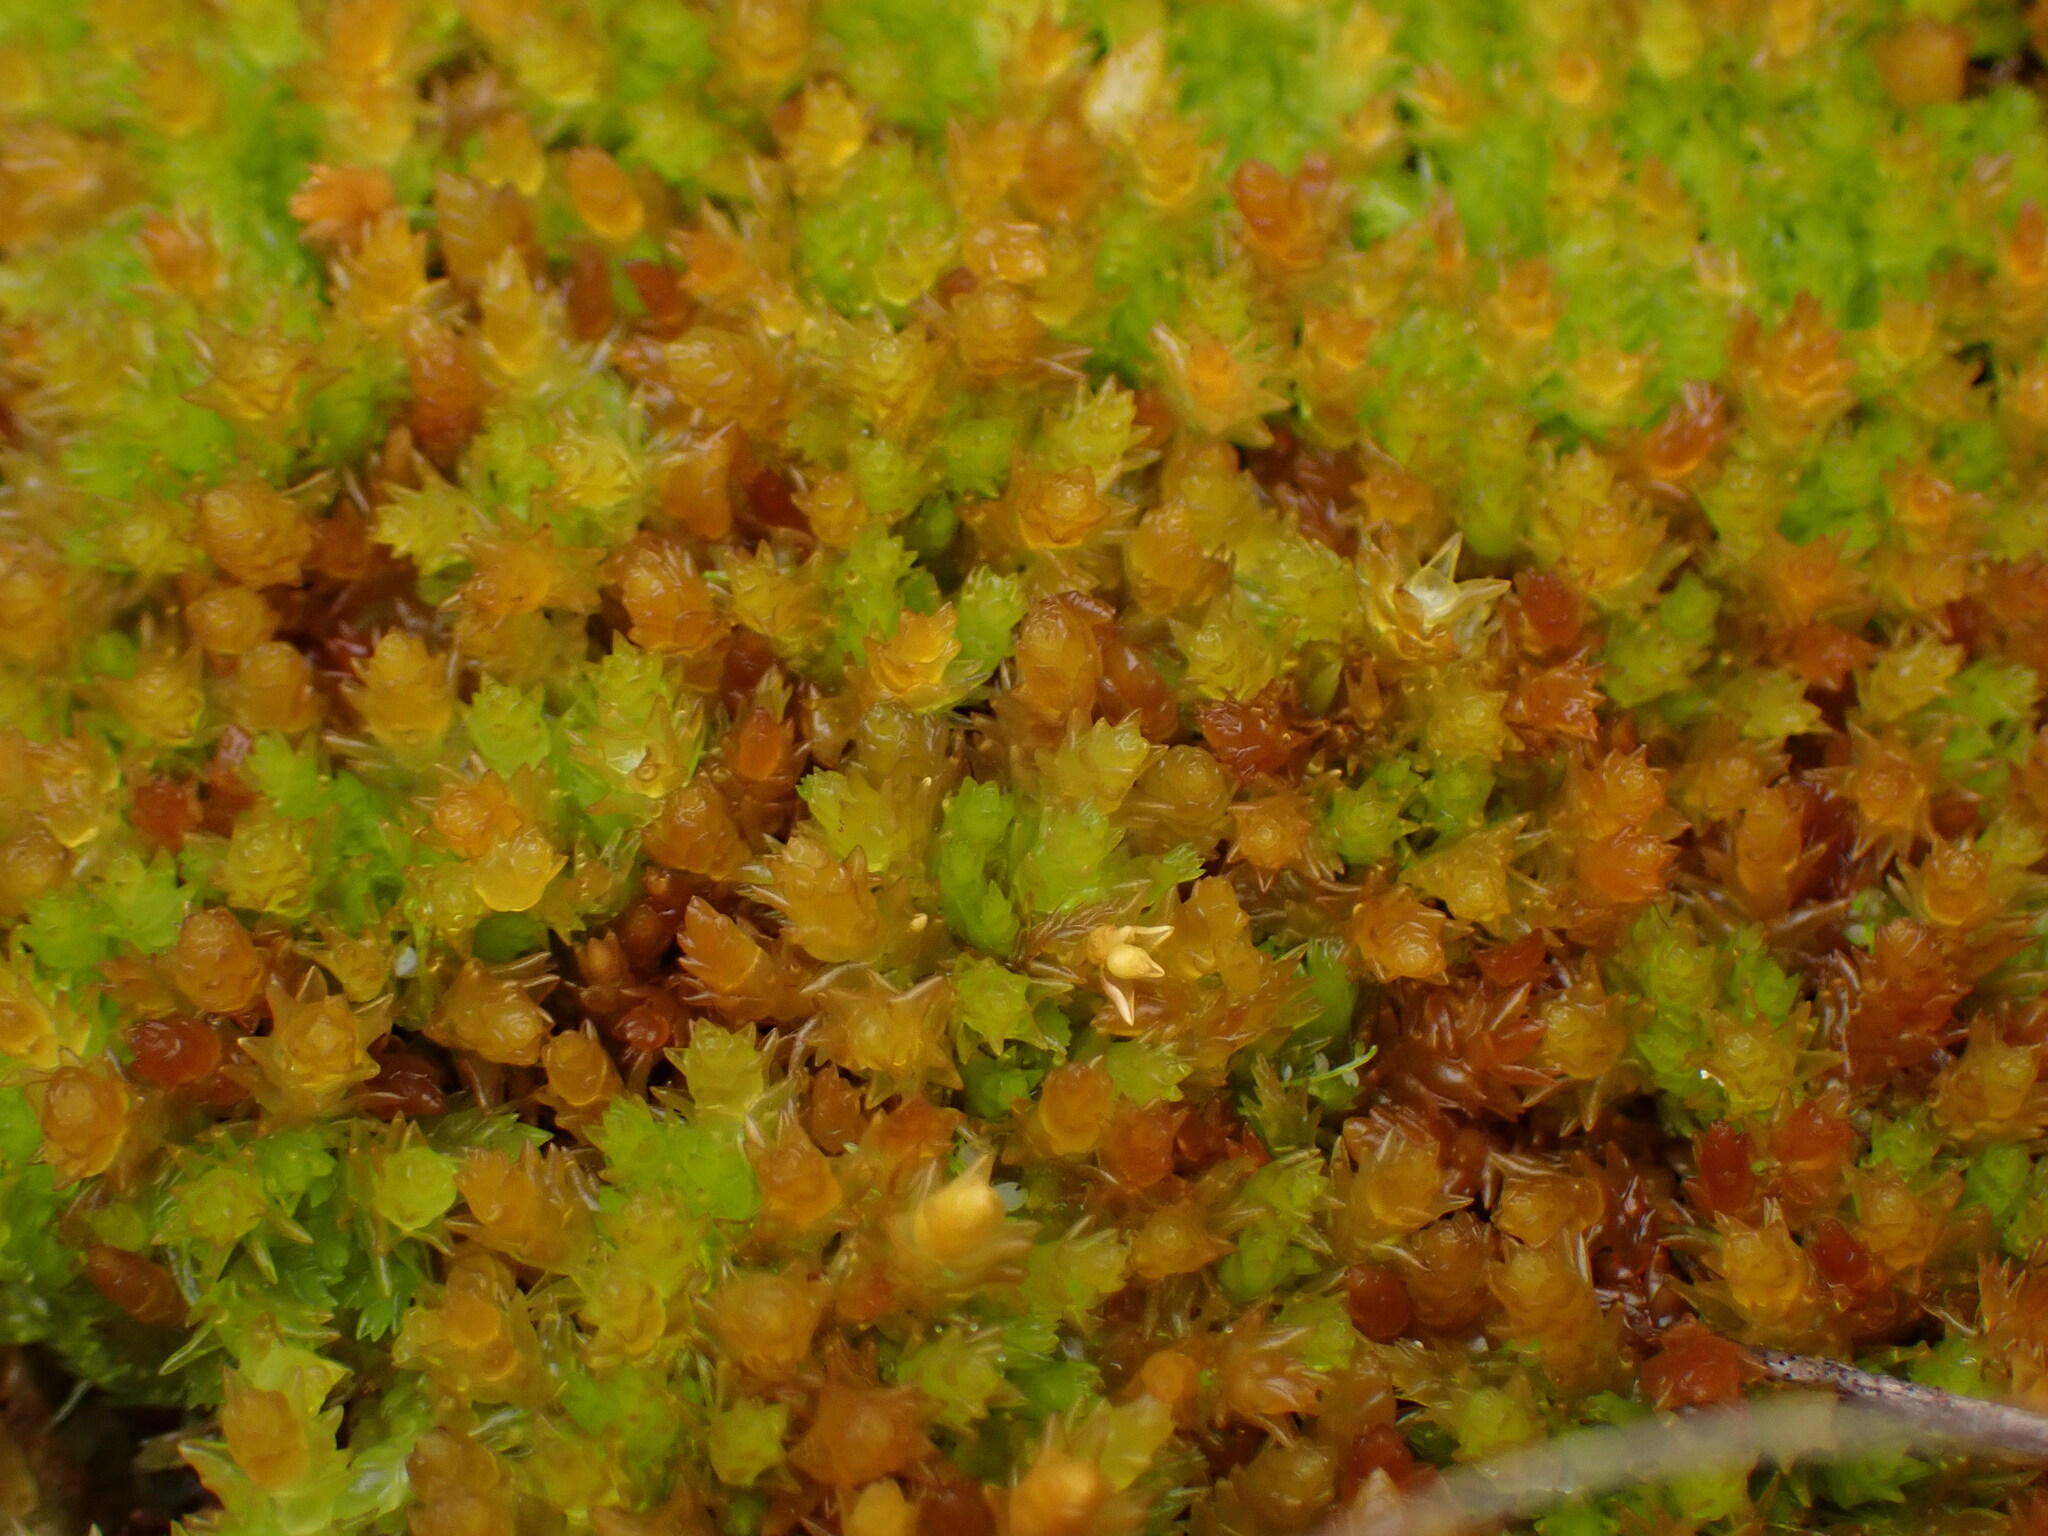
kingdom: Plantae
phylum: Bryophyta
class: Sphagnopsida
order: Sphagnales
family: Sphagnaceae
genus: Sphagnum
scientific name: Sphagnum compactum
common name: Compact peat moss
